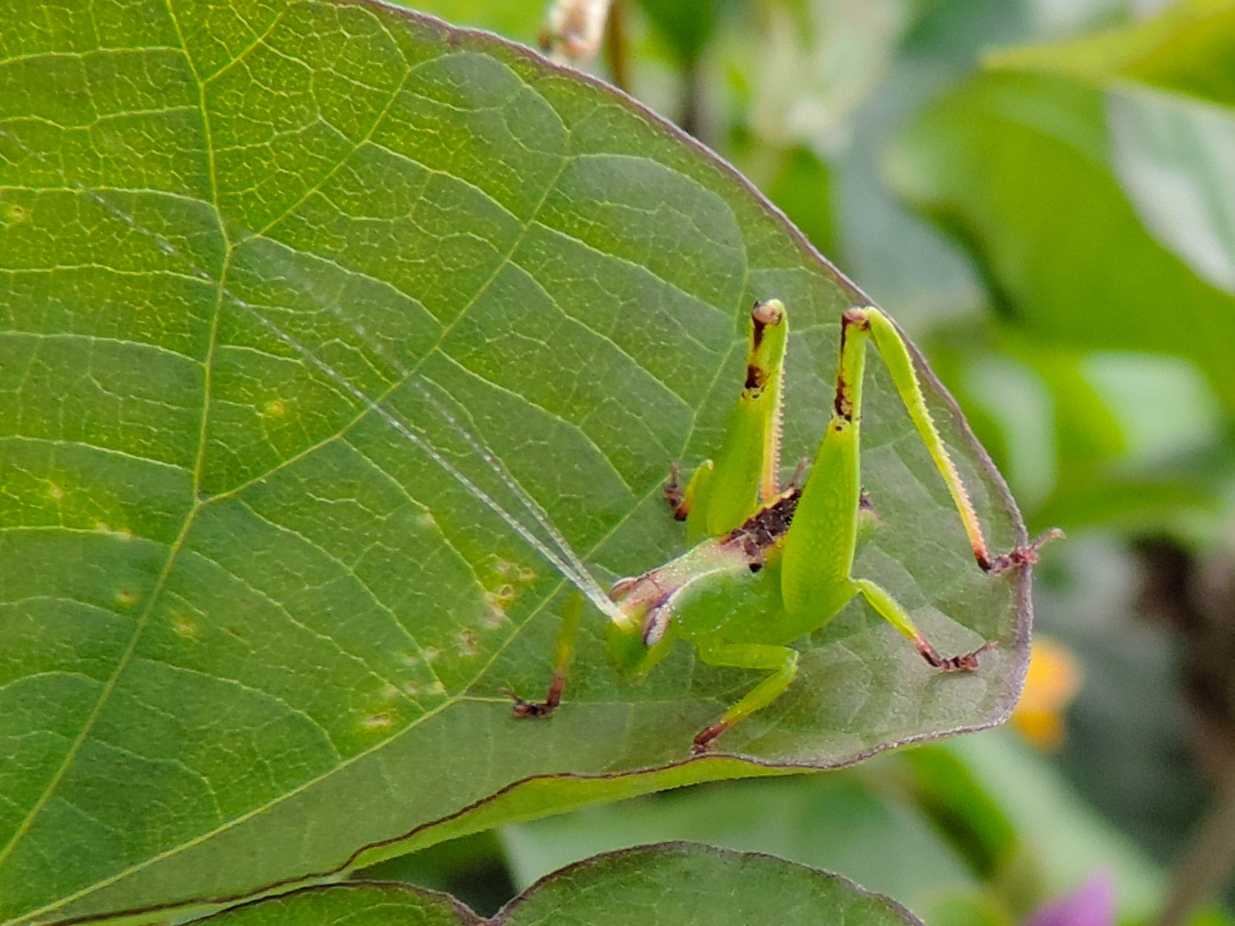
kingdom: Animalia
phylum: Arthropoda
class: Insecta
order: Orthoptera
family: Phaneropteridae
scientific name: Phaneropteridae
